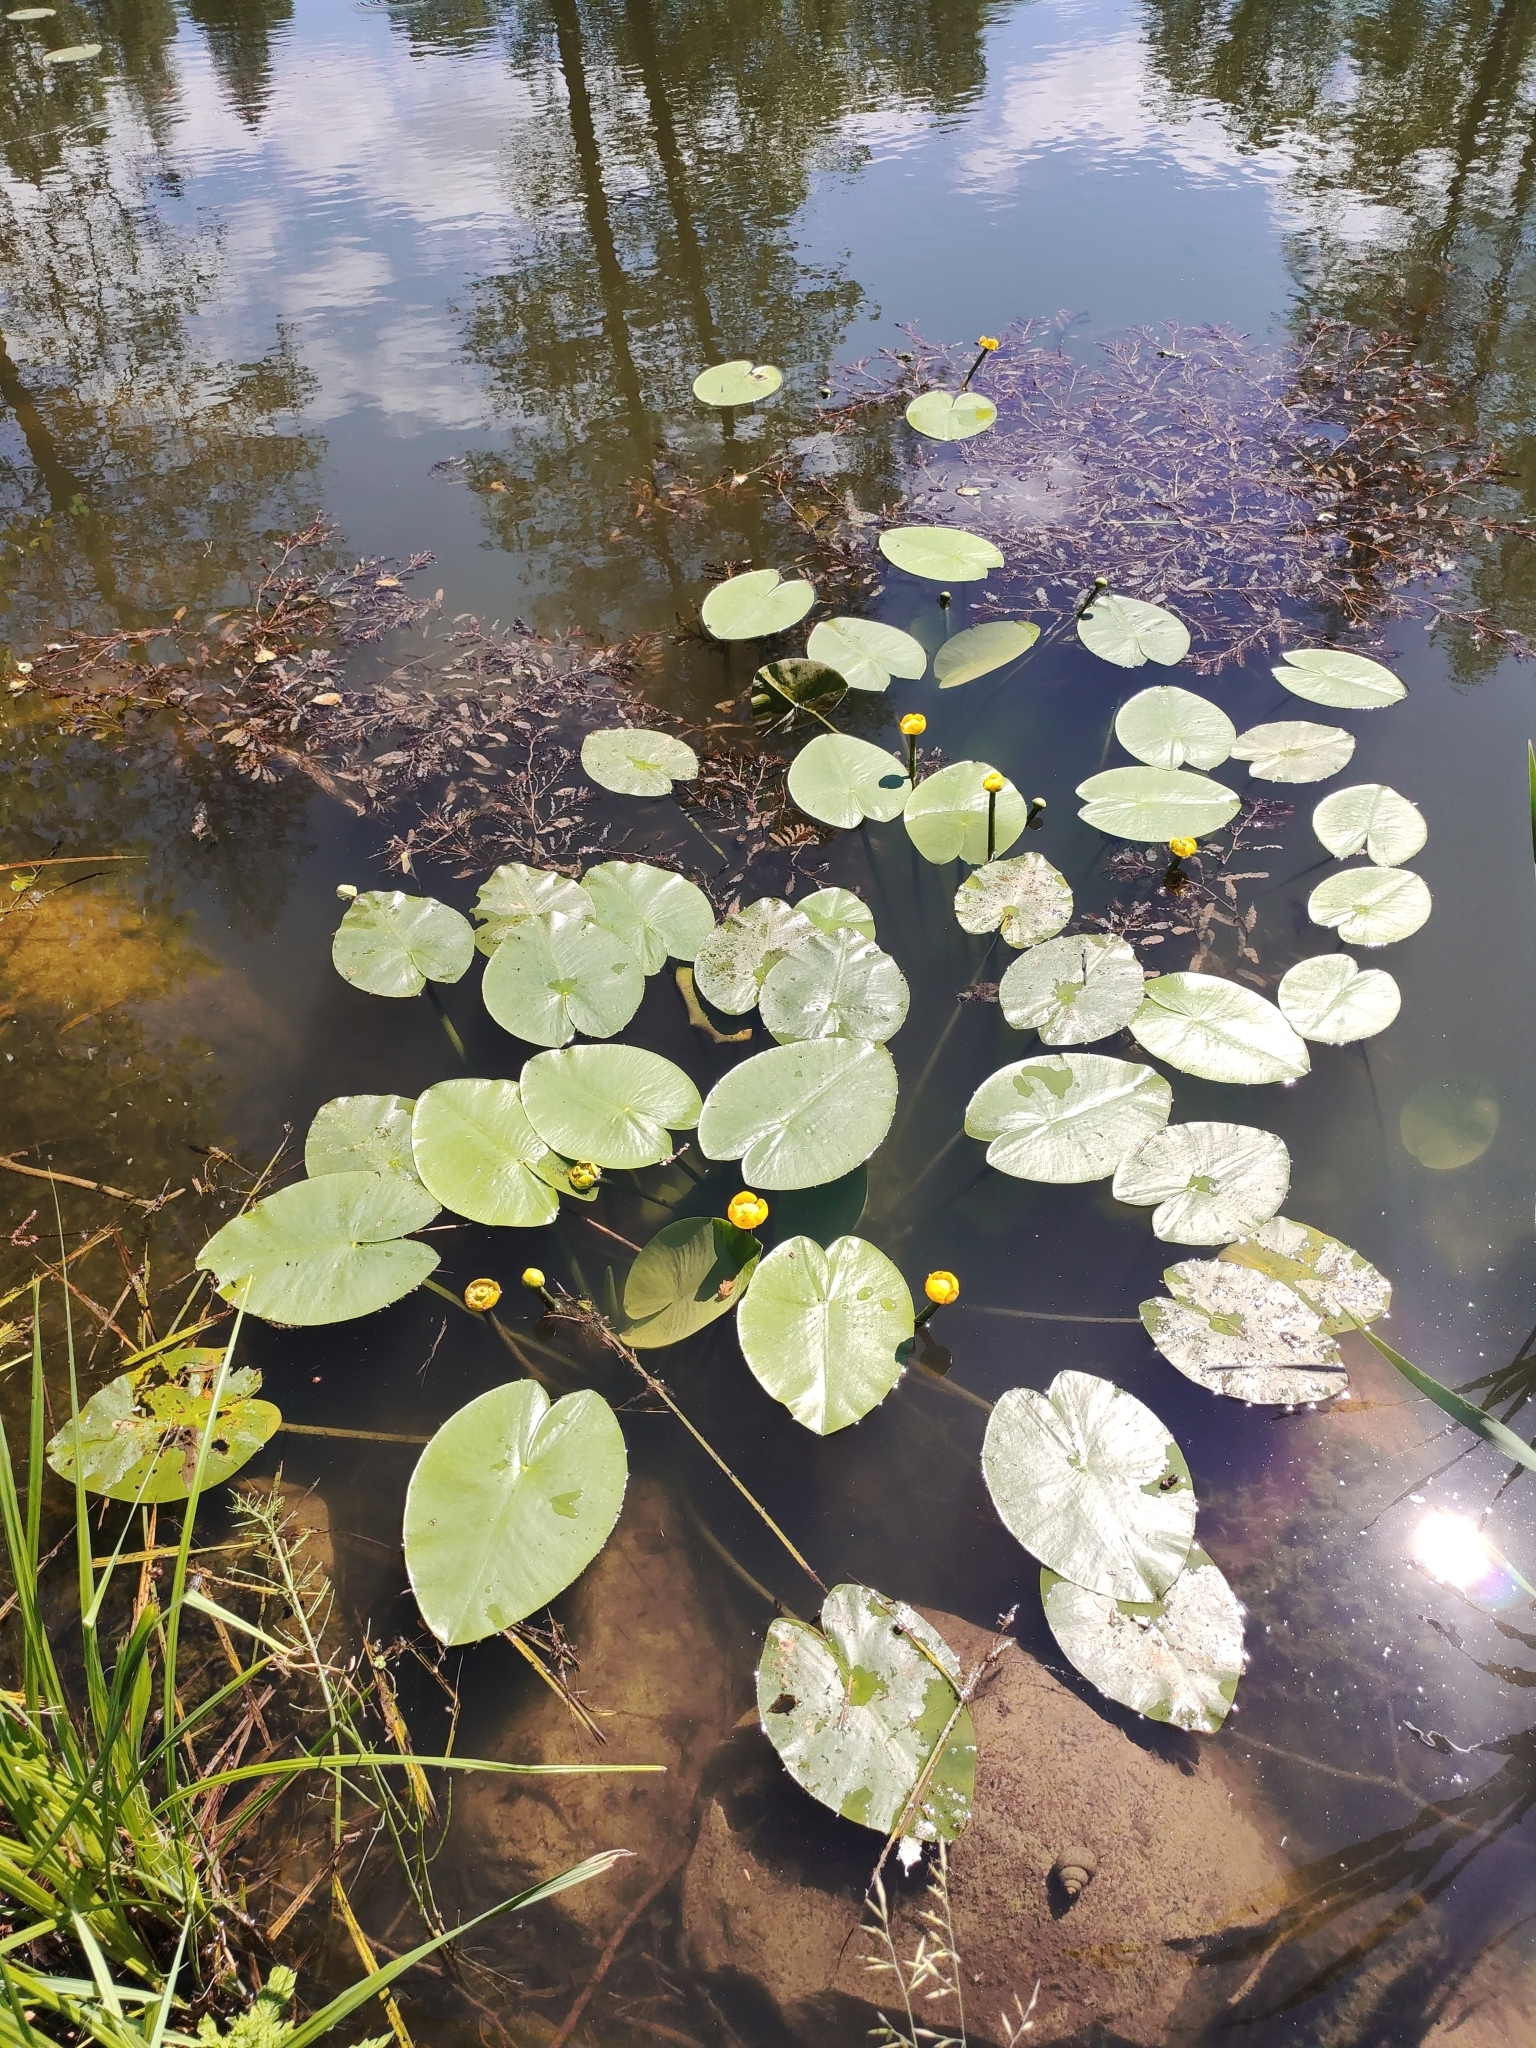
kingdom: Plantae
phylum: Tracheophyta
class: Magnoliopsida
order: Nymphaeales
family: Nymphaeaceae
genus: Nuphar
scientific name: Nuphar lutea
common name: Yellow water-lily
